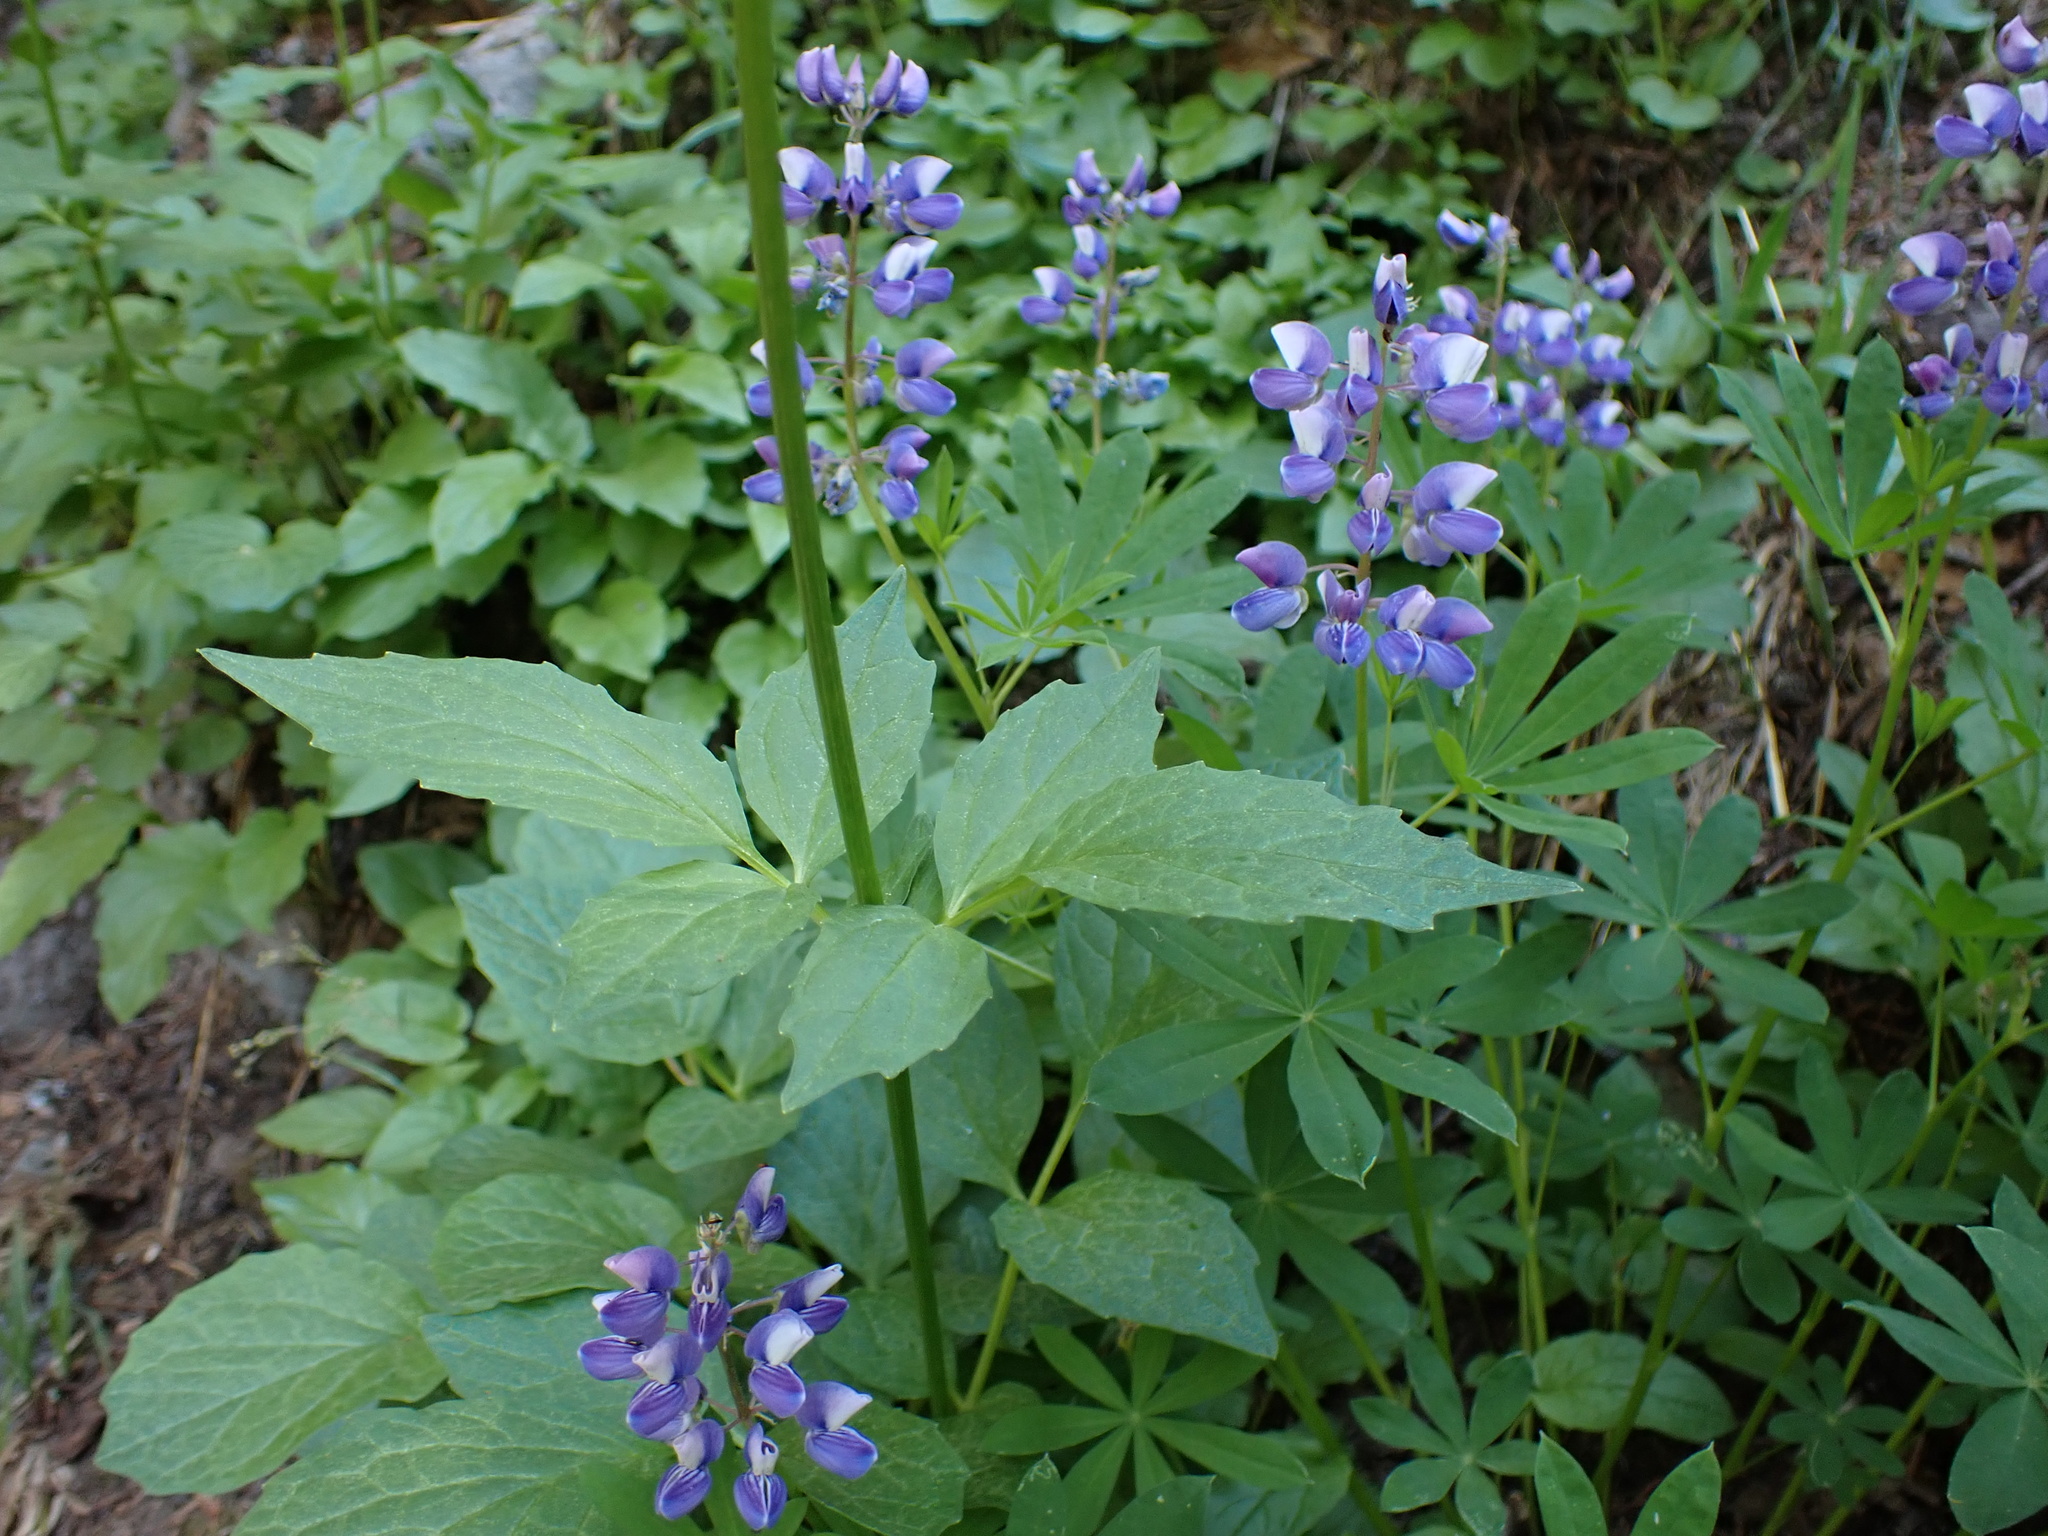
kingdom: Plantae
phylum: Tracheophyta
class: Magnoliopsida
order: Dipsacales
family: Caprifoliaceae
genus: Valeriana
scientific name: Valeriana sitchensis
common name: Pacific valerian
